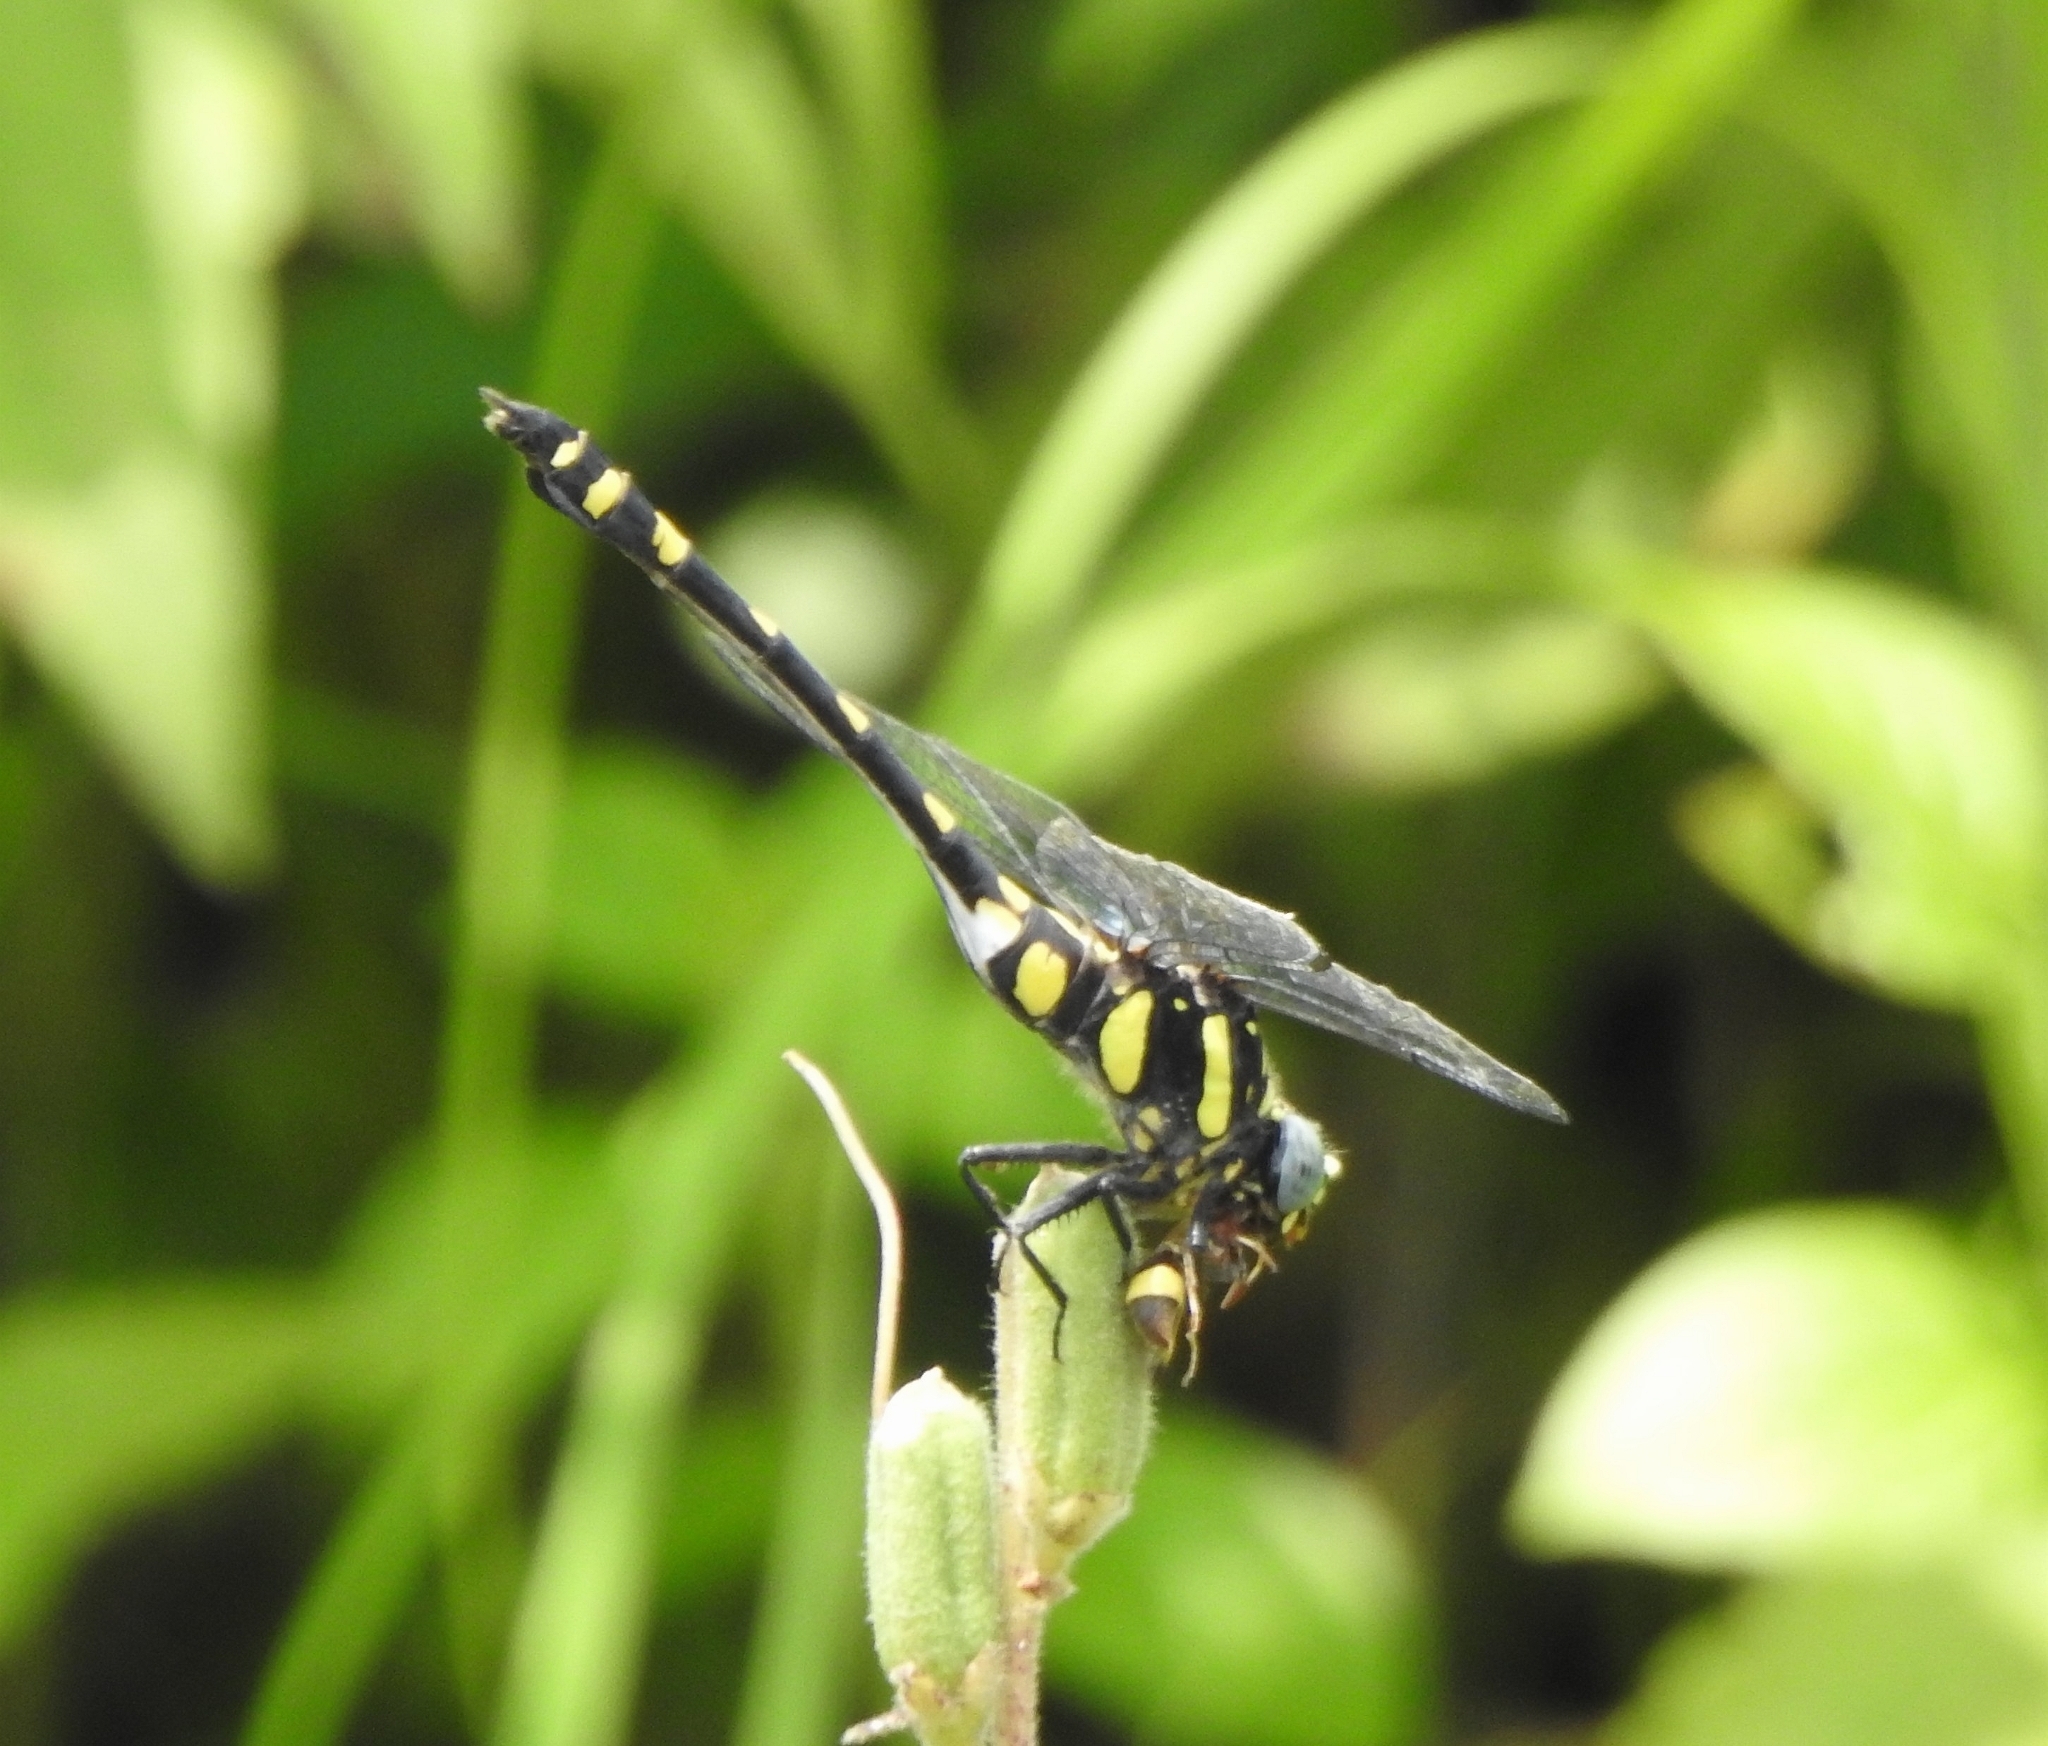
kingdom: Animalia
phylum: Arthropoda
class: Insecta
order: Odonata
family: Gomphidae
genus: Ictinogomphus
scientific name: Ictinogomphus rapax
